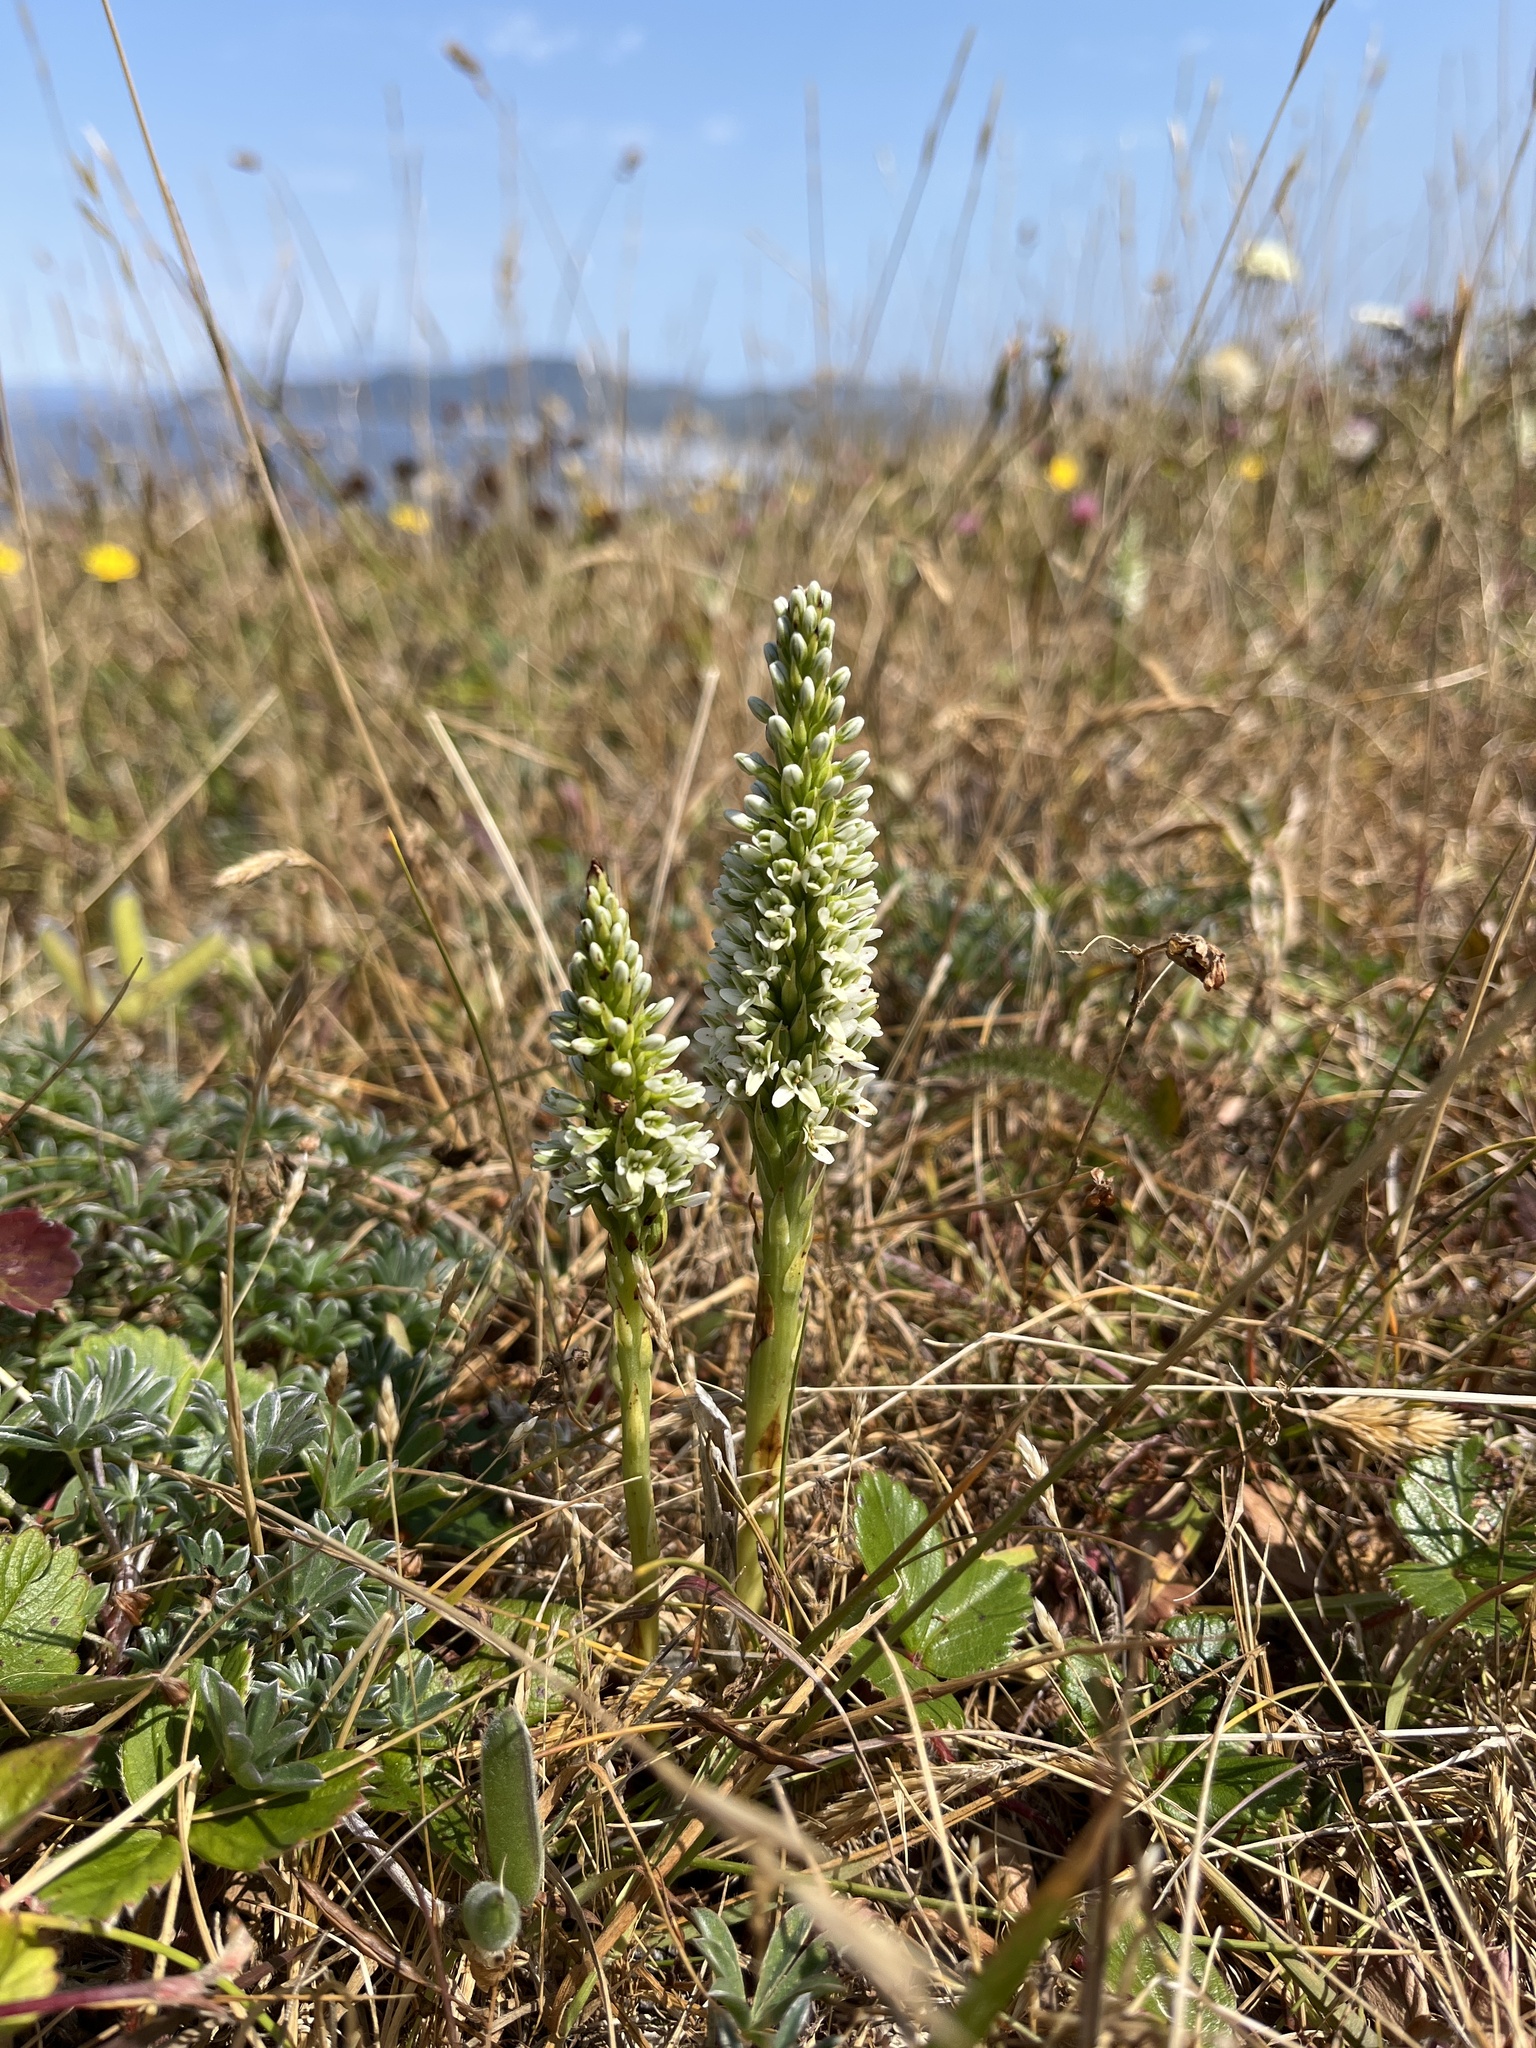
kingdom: Plantae
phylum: Tracheophyta
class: Liliopsida
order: Asparagales
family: Orchidaceae
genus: Platanthera
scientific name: Platanthera elegans
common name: Coast piperia
